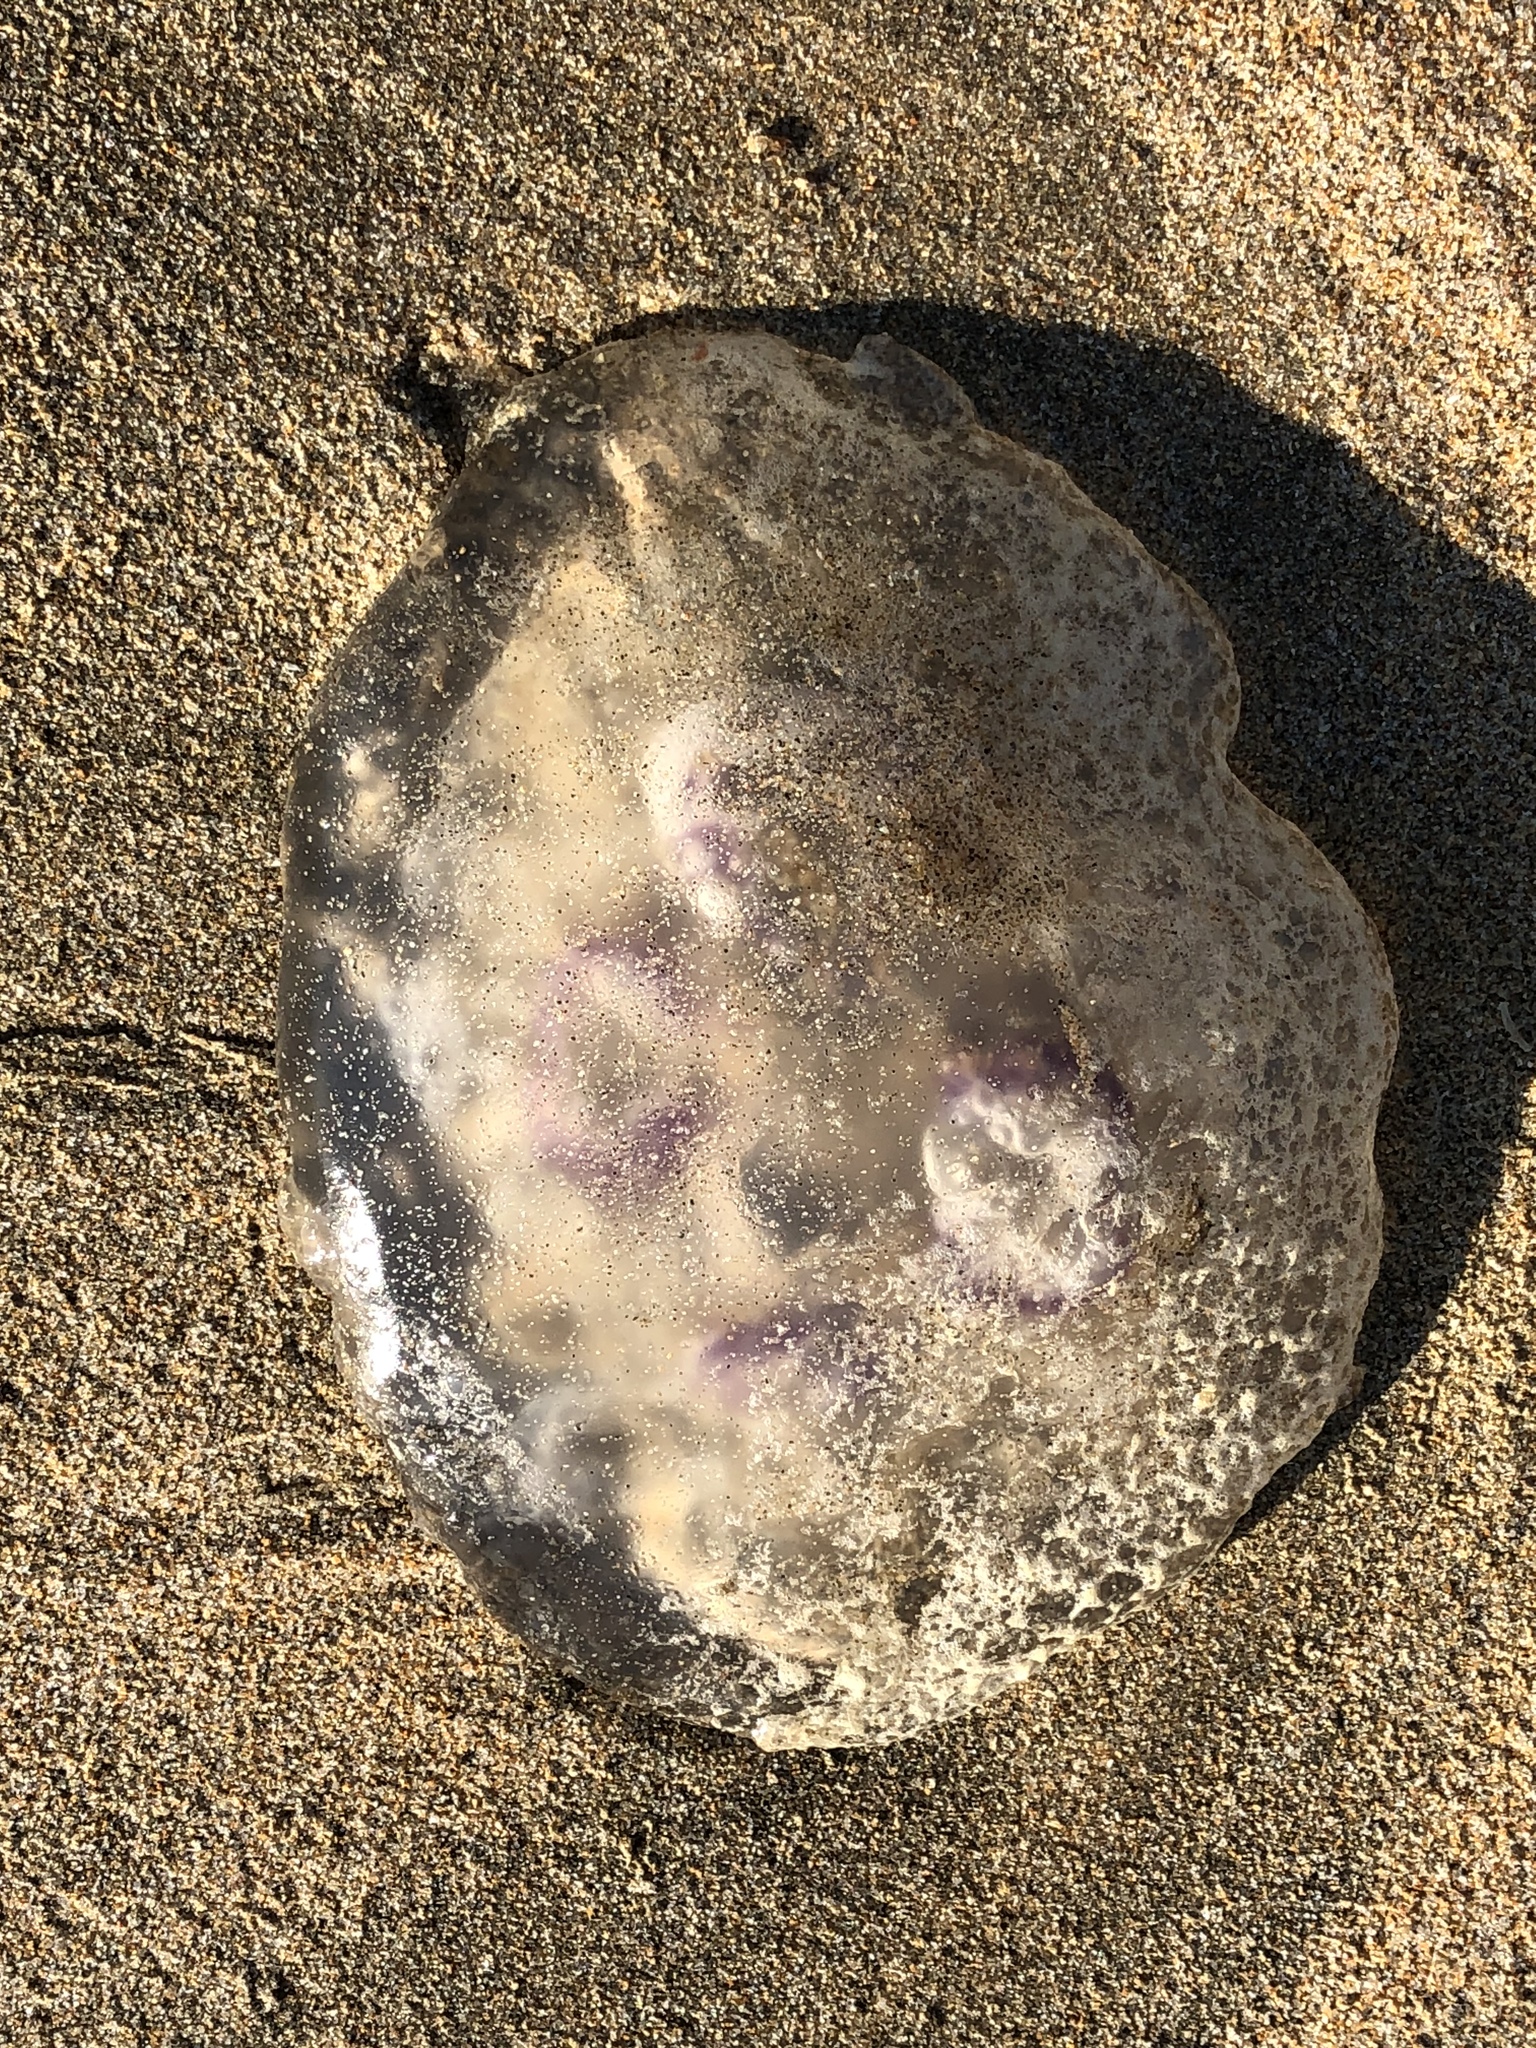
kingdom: Animalia
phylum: Cnidaria
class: Scyphozoa
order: Semaeostomeae
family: Ulmaridae
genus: Aurelia
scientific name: Aurelia labiata
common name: Pacific moon jelly
